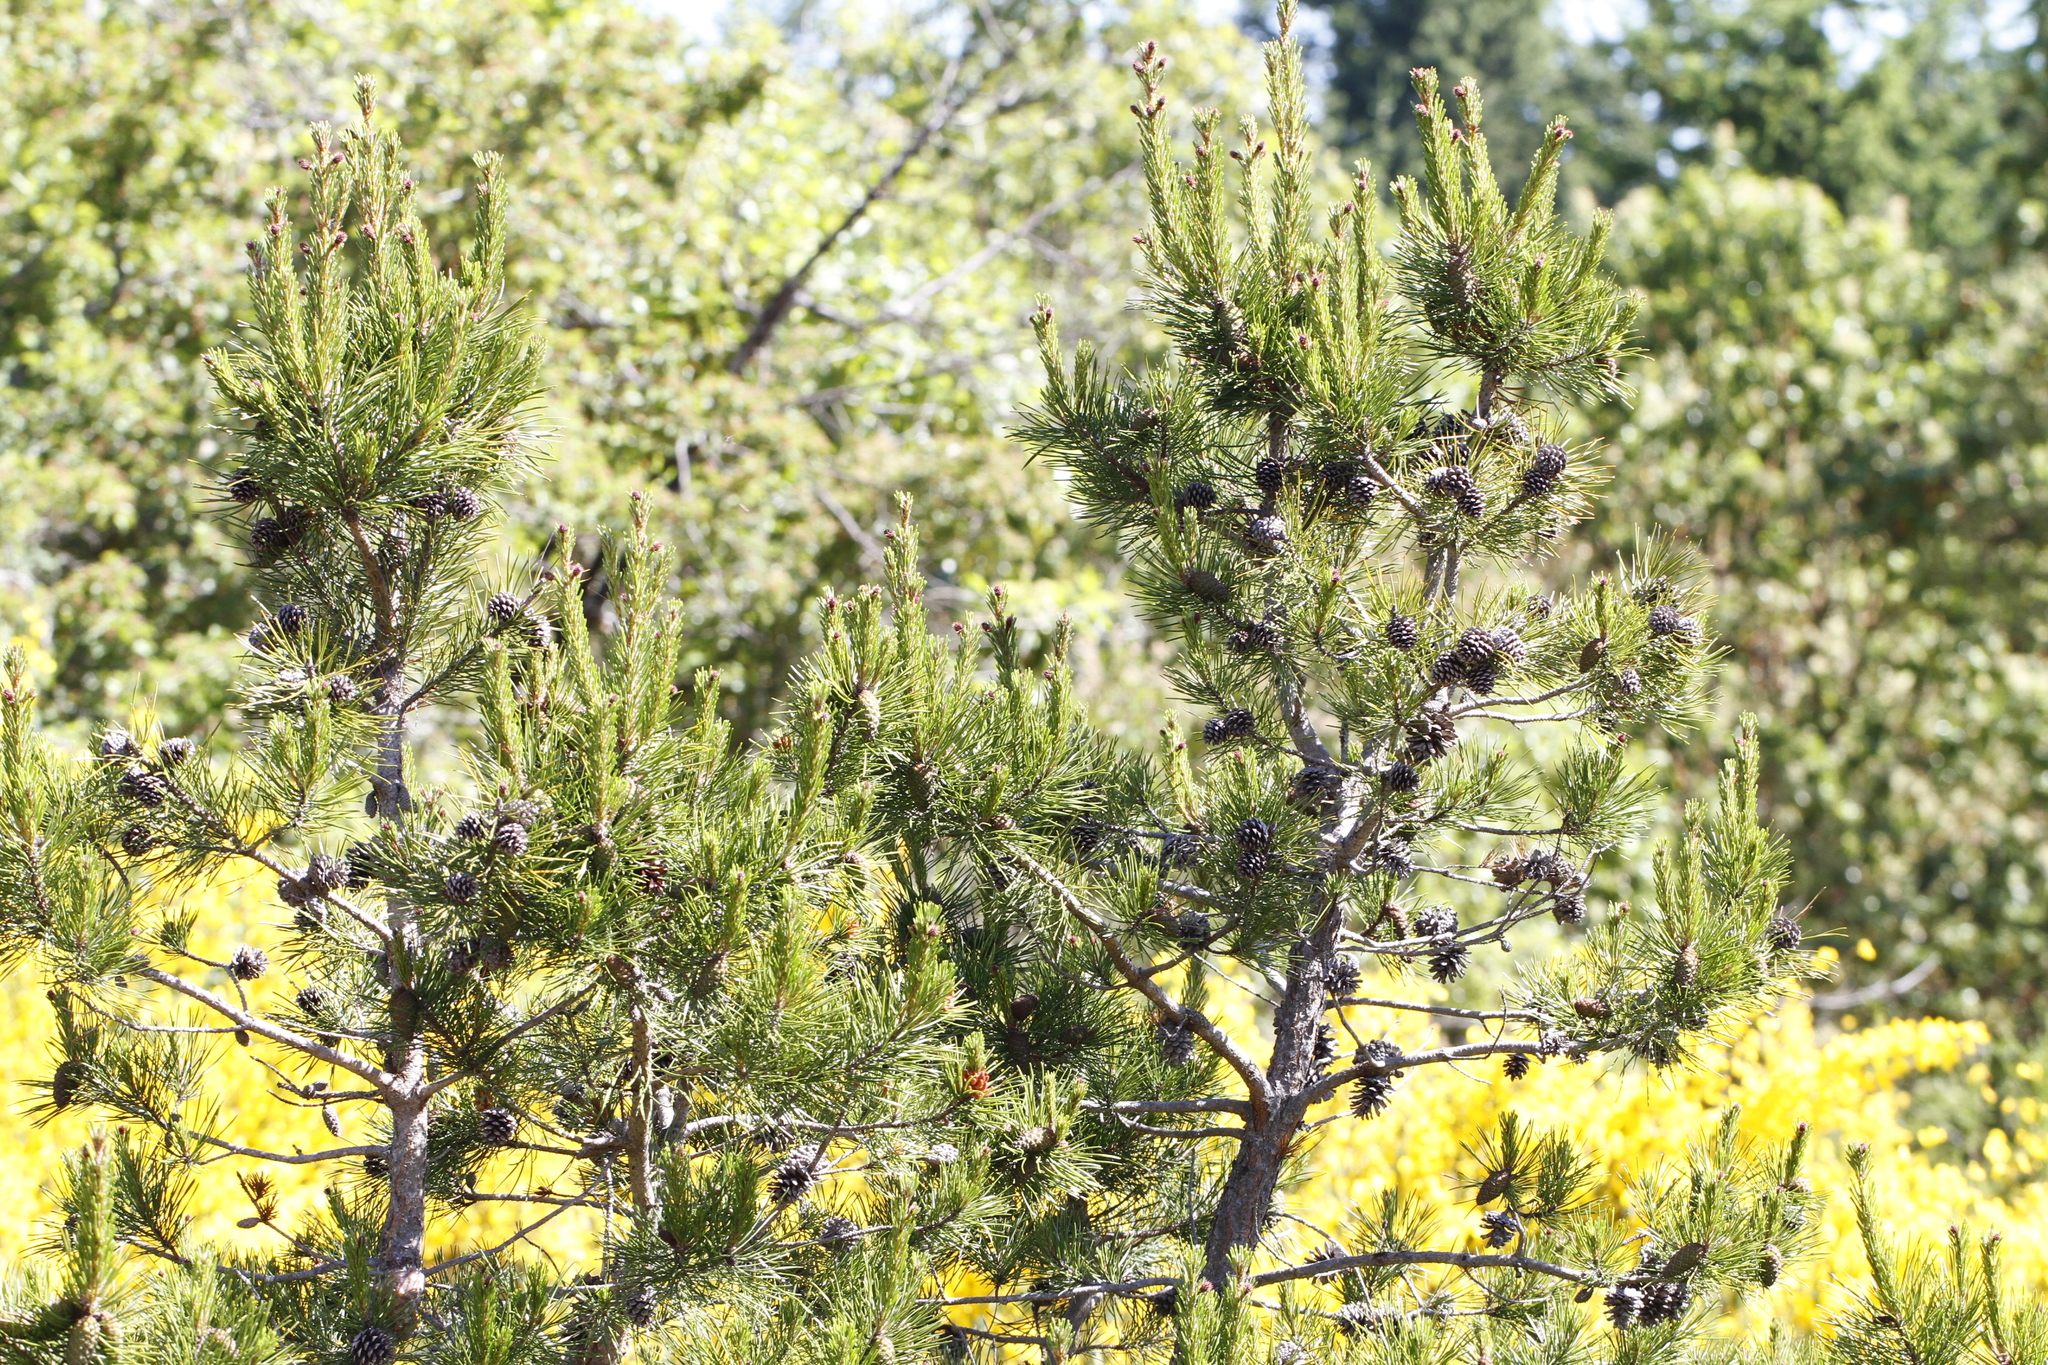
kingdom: Plantae
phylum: Tracheophyta
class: Pinopsida
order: Pinales
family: Pinaceae
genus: Pinus
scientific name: Pinus contorta
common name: Lodgepole pine
